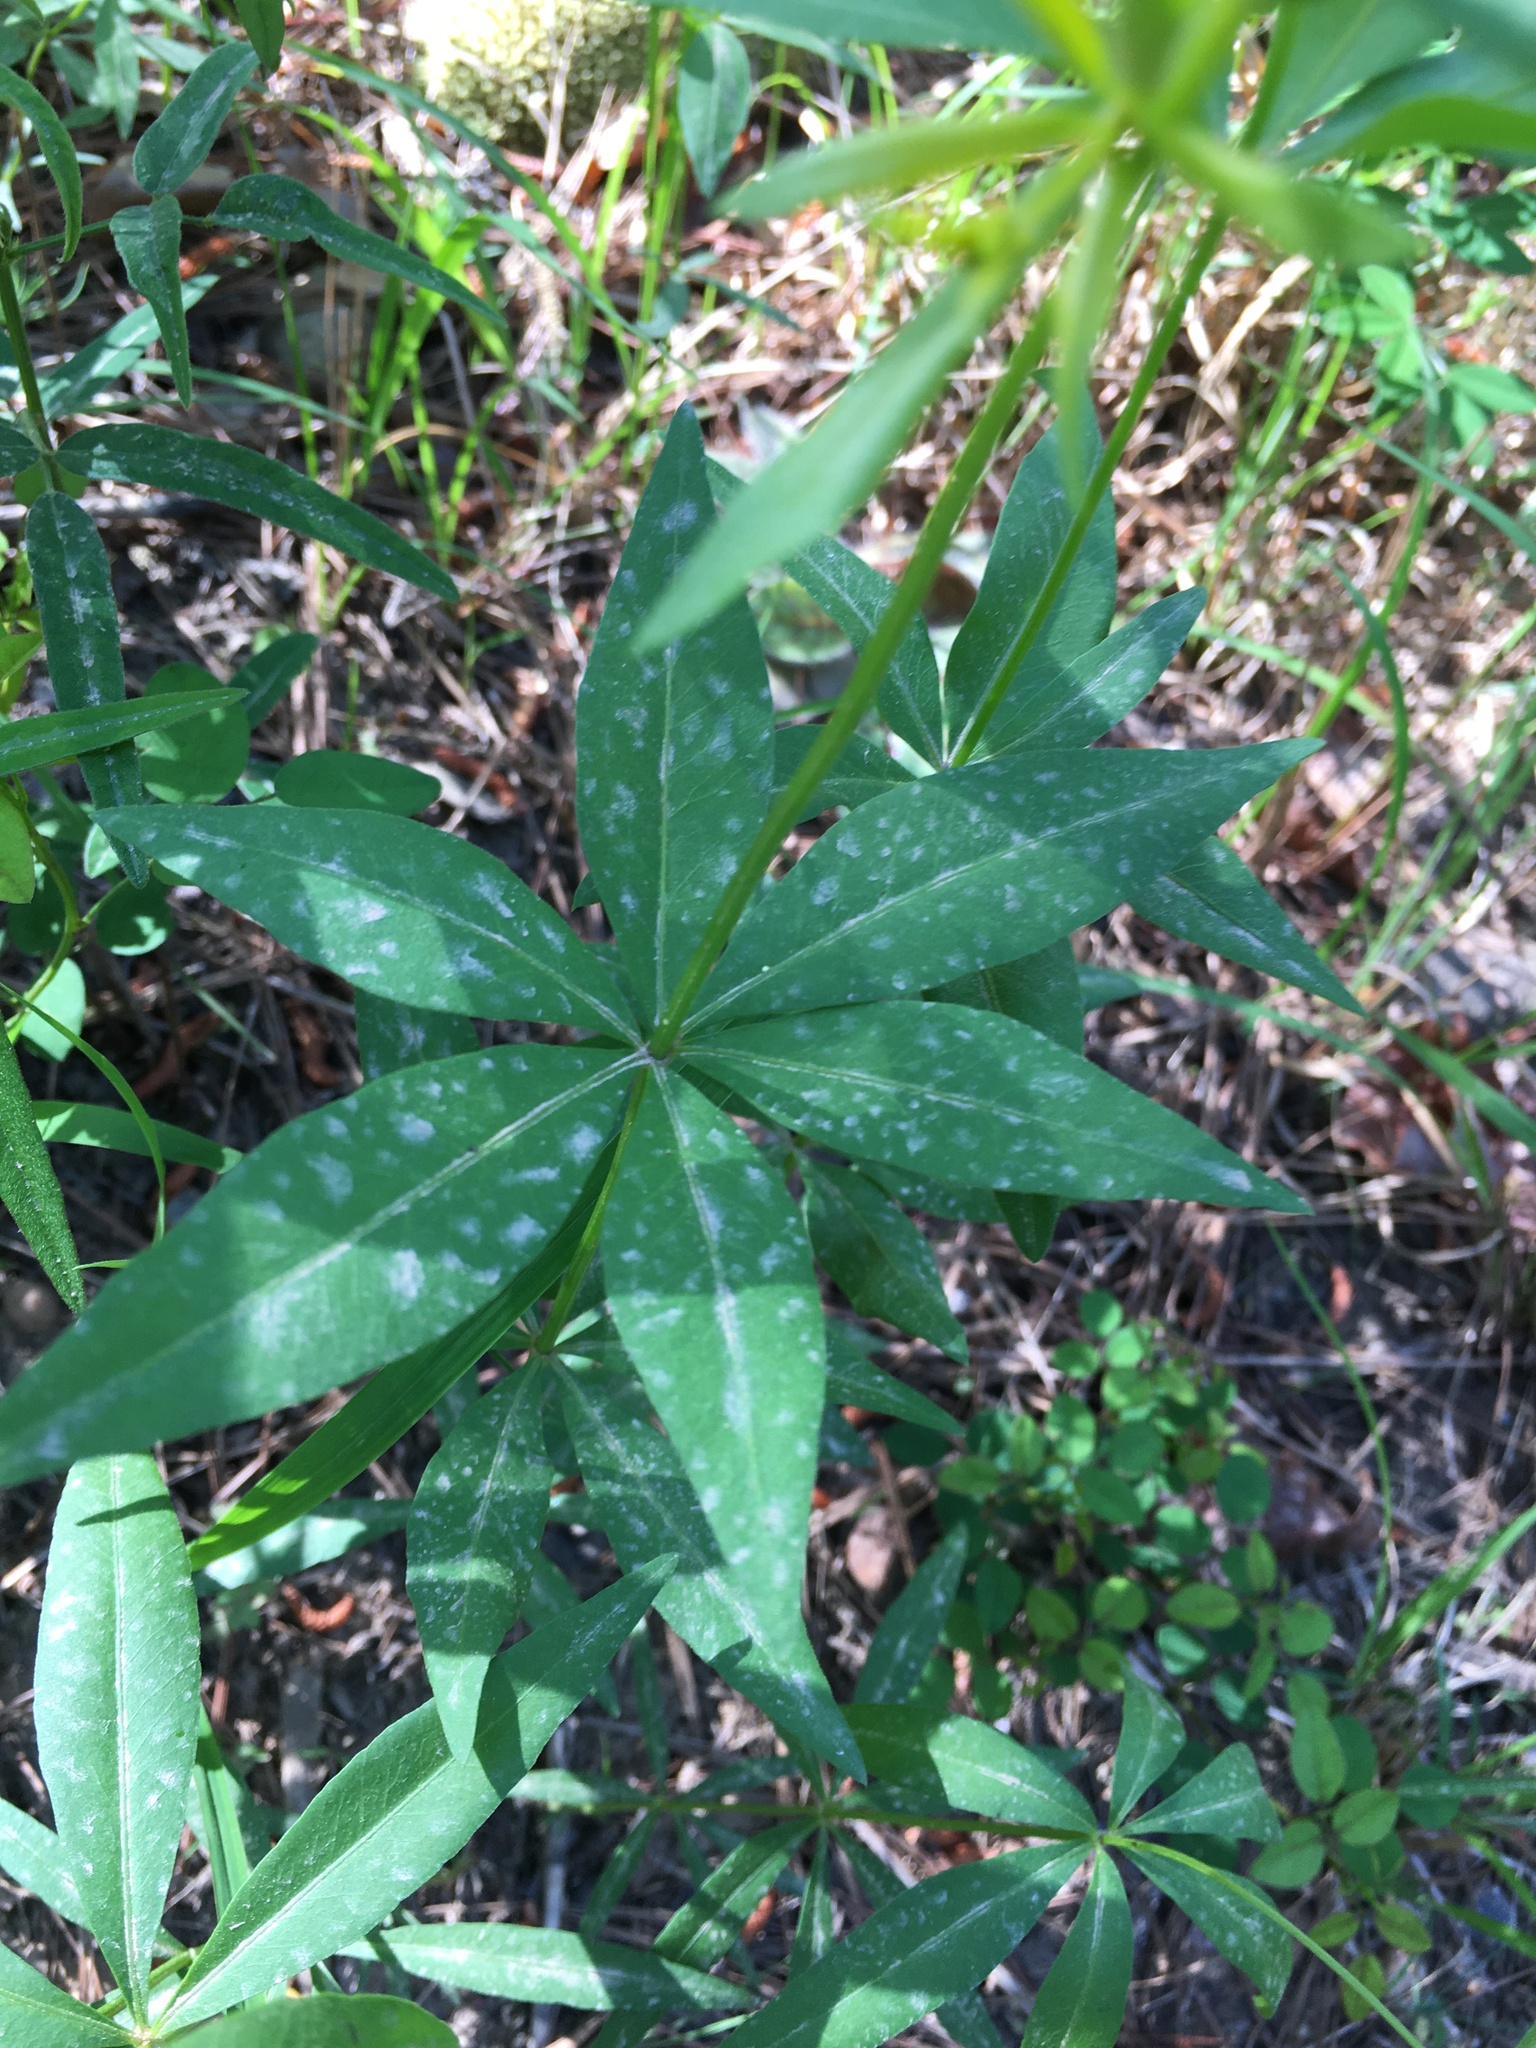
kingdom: Plantae
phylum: Tracheophyta
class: Magnoliopsida
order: Asterales
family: Asteraceae
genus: Coreopsis
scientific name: Coreopsis major
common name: Forest tickseed
